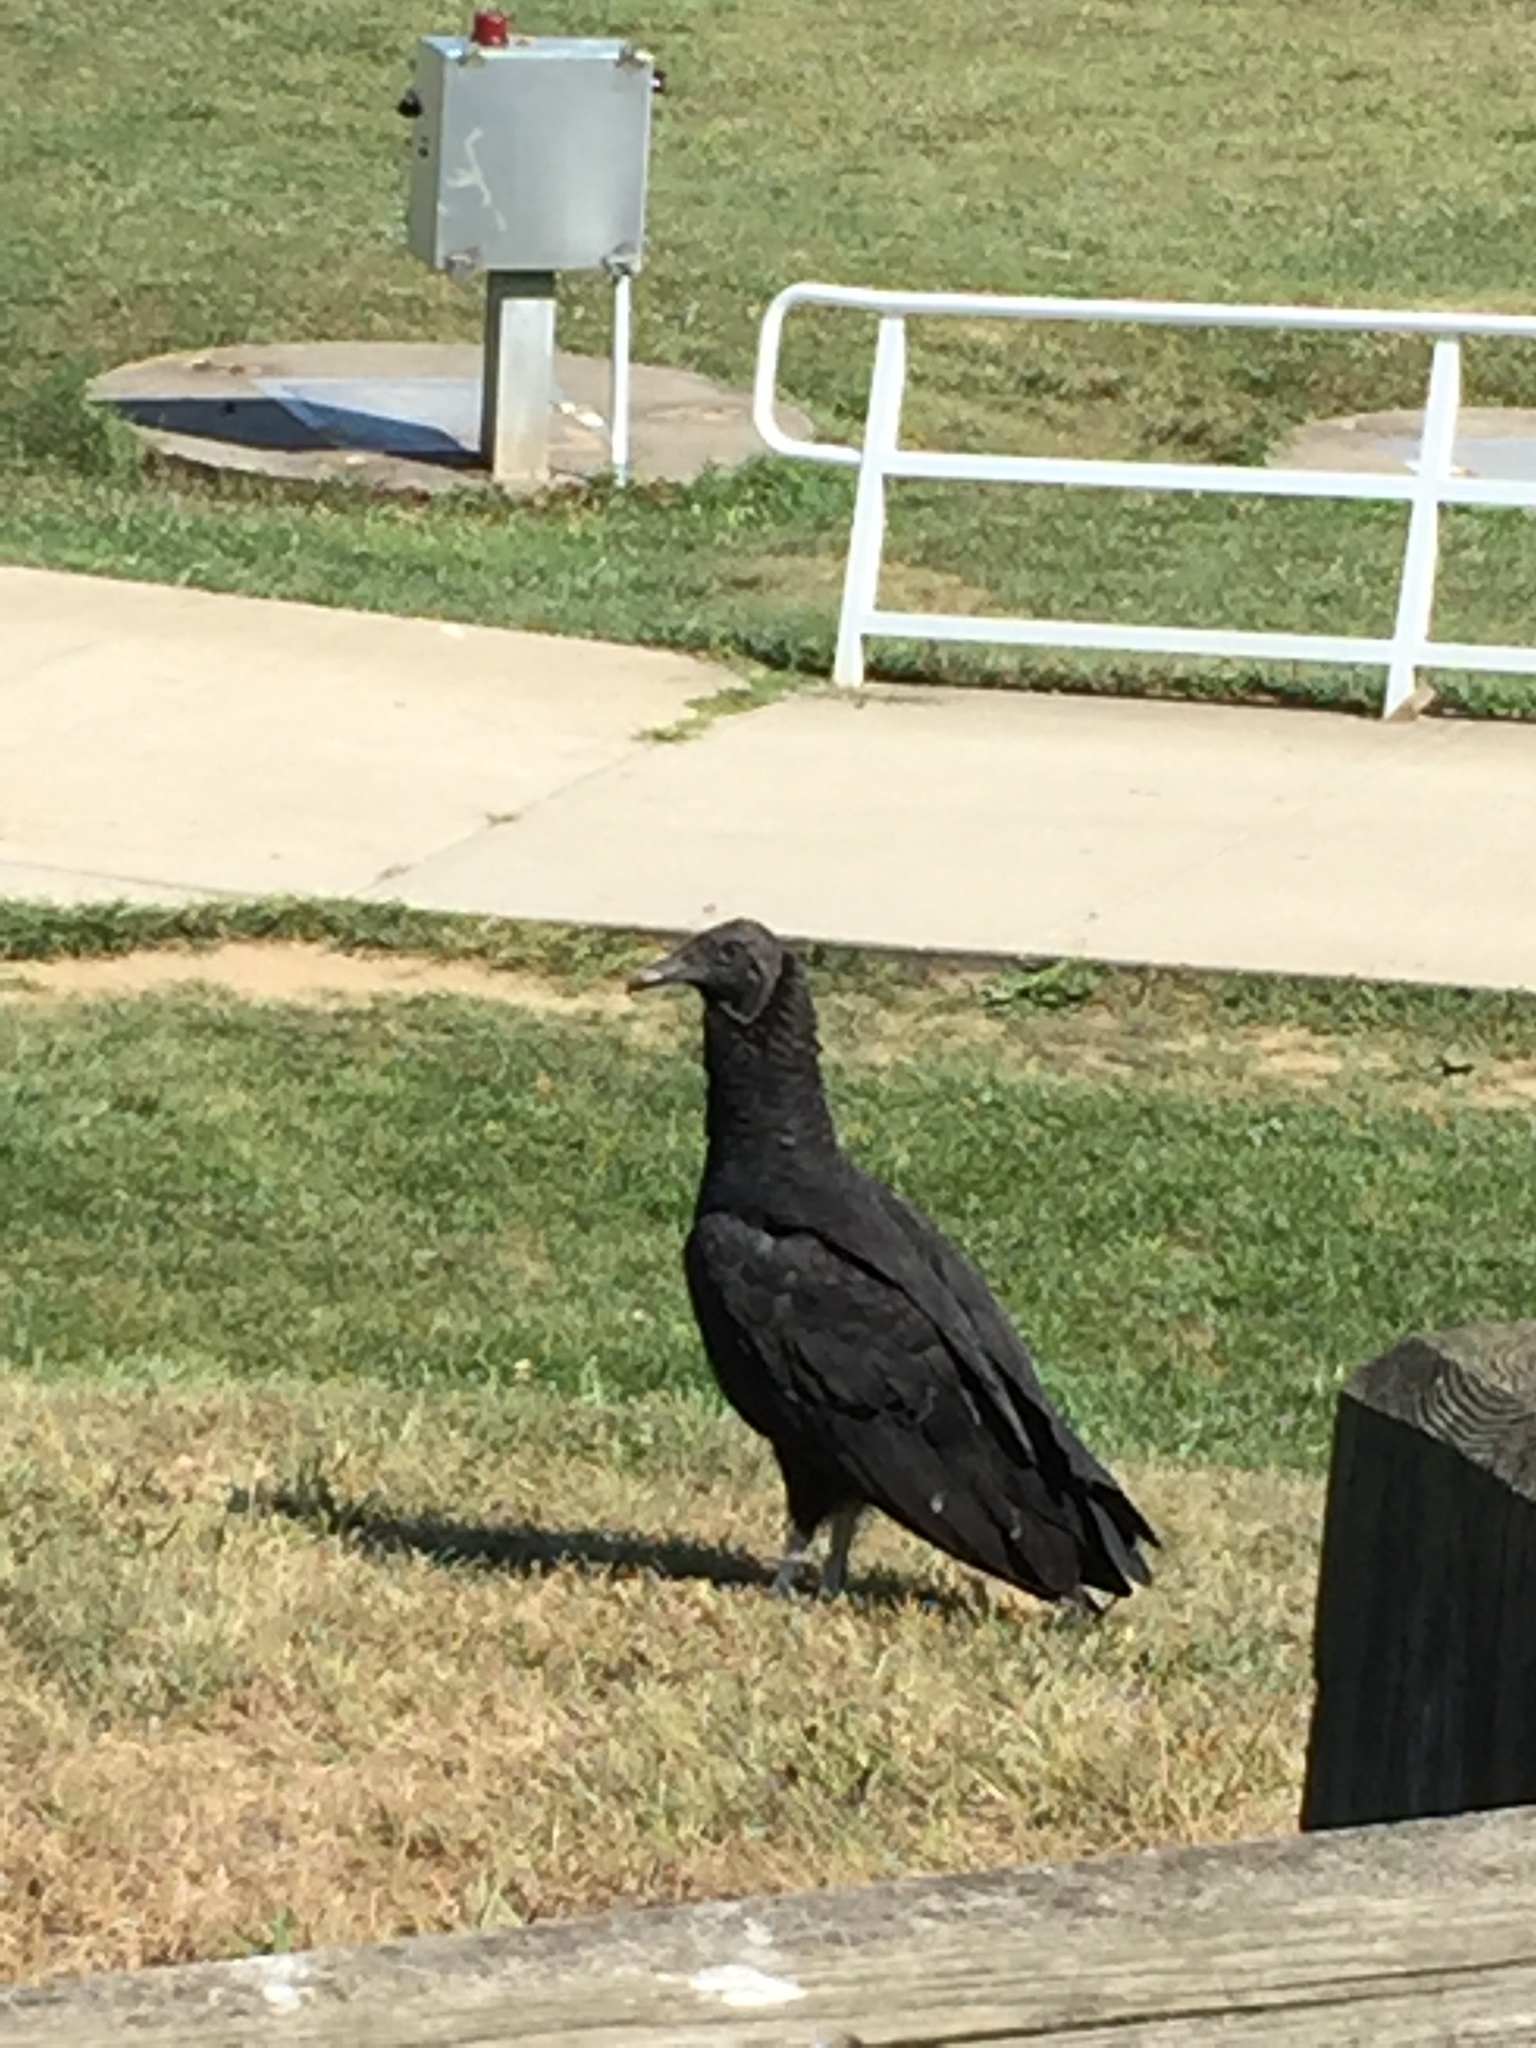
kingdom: Animalia
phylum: Chordata
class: Aves
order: Accipitriformes
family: Cathartidae
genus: Coragyps
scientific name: Coragyps atratus
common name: Black vulture
